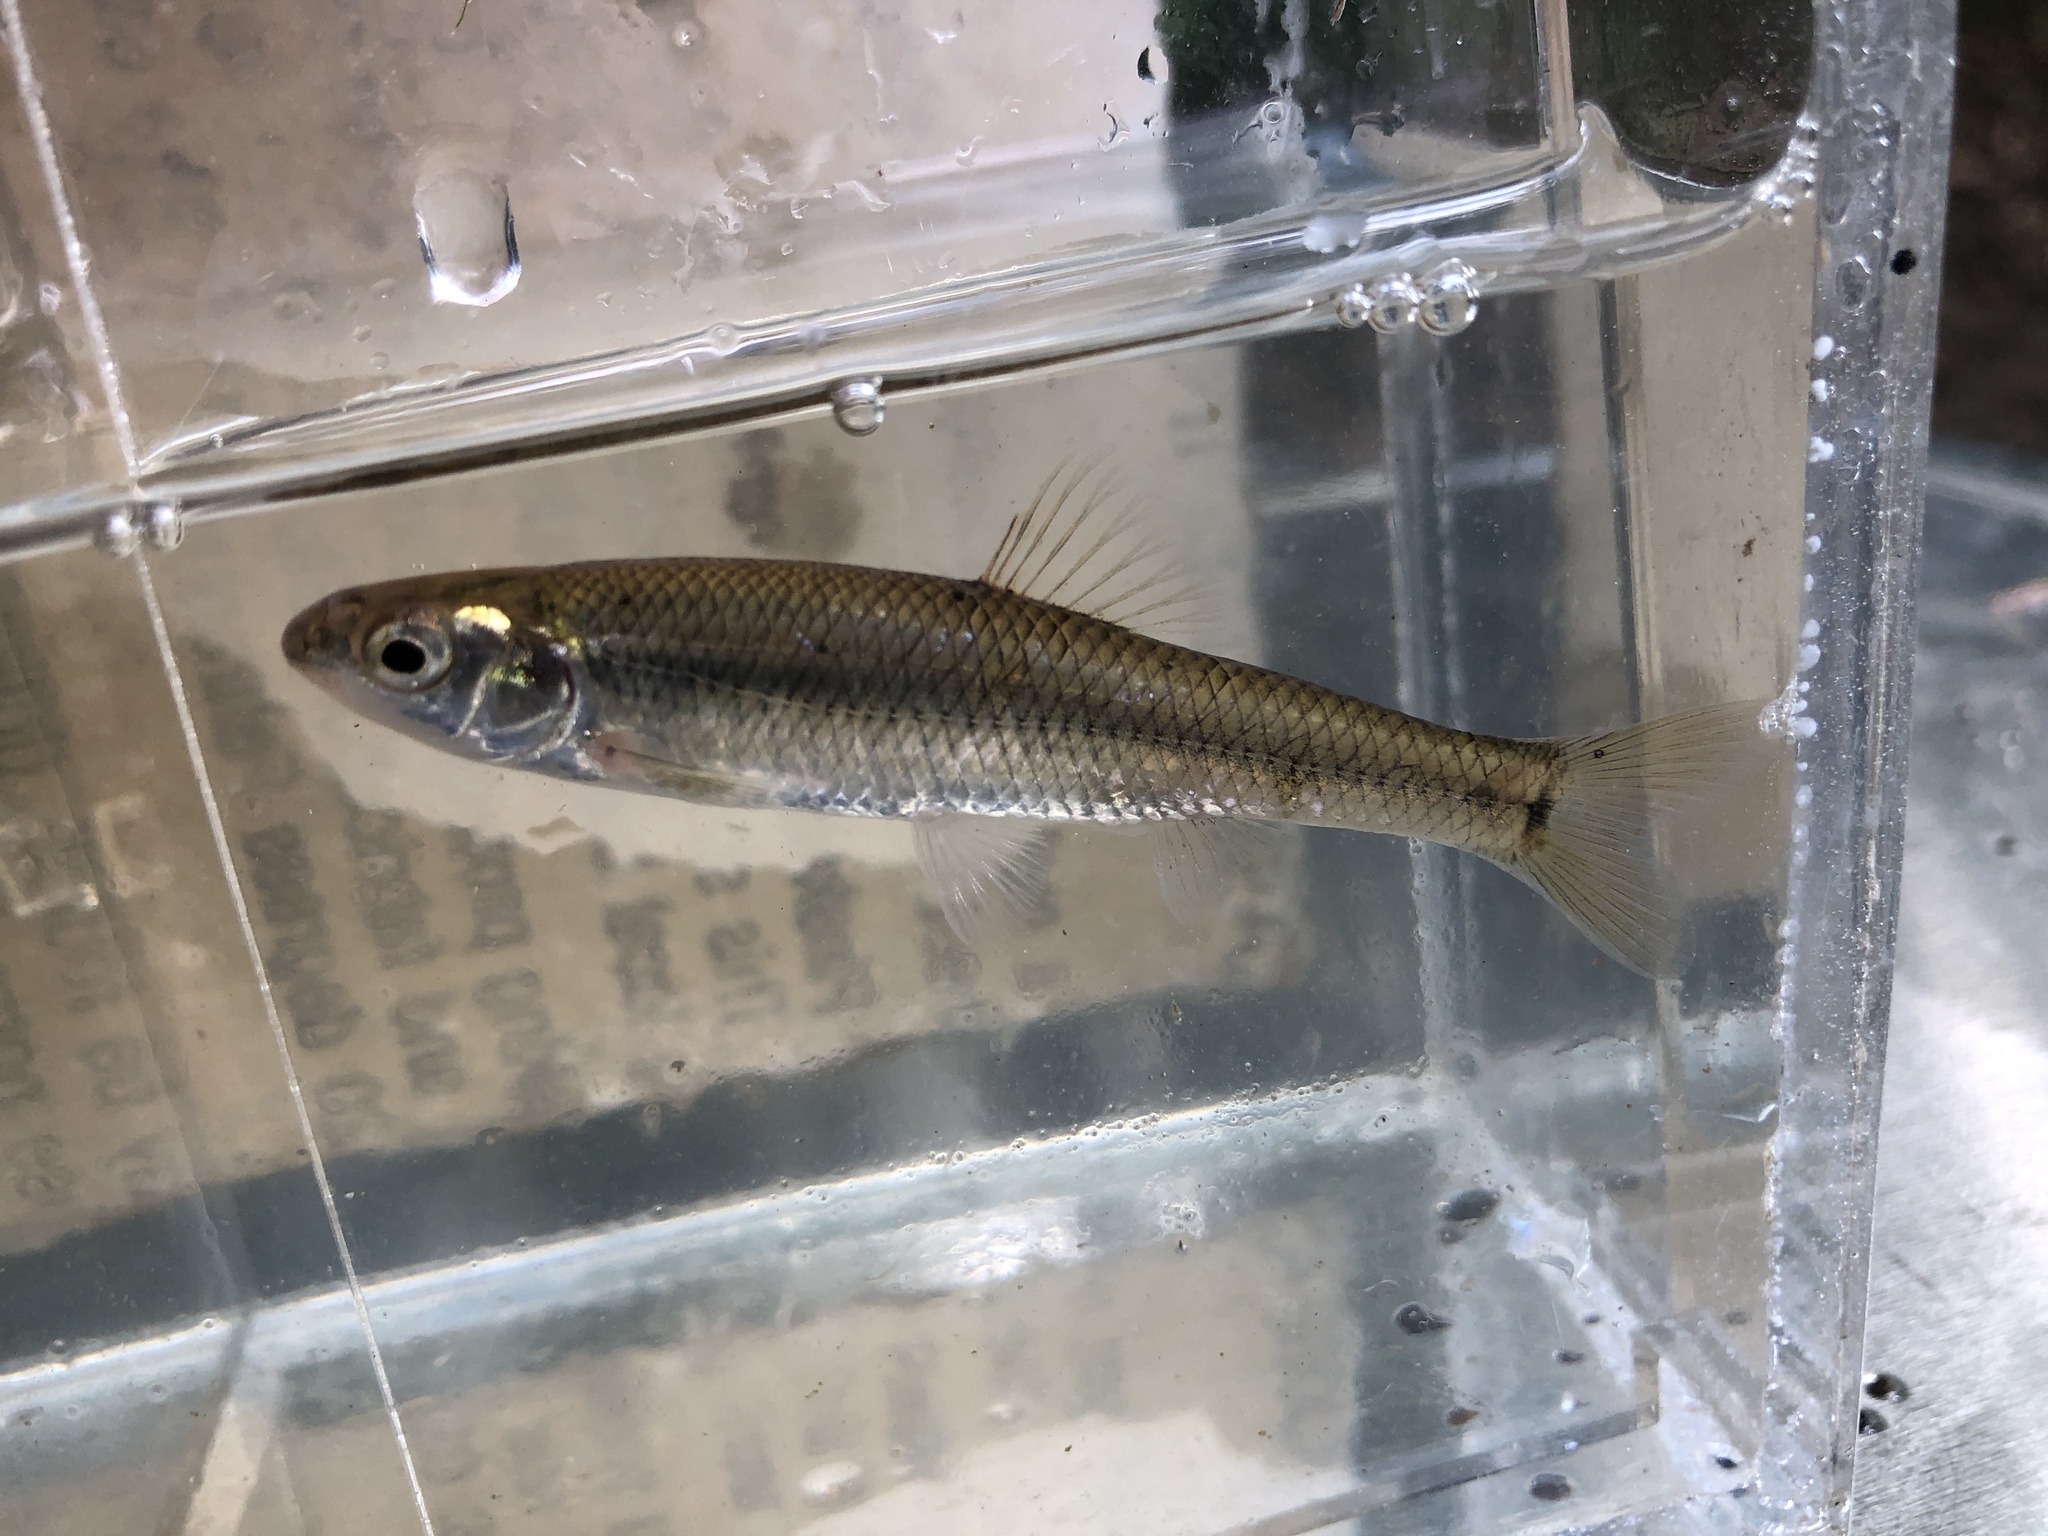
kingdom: Animalia
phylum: Chordata
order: Cypriniformes
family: Cyprinidae
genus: Pimephales
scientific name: Pimephales notatus
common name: Bluntnose minnow
